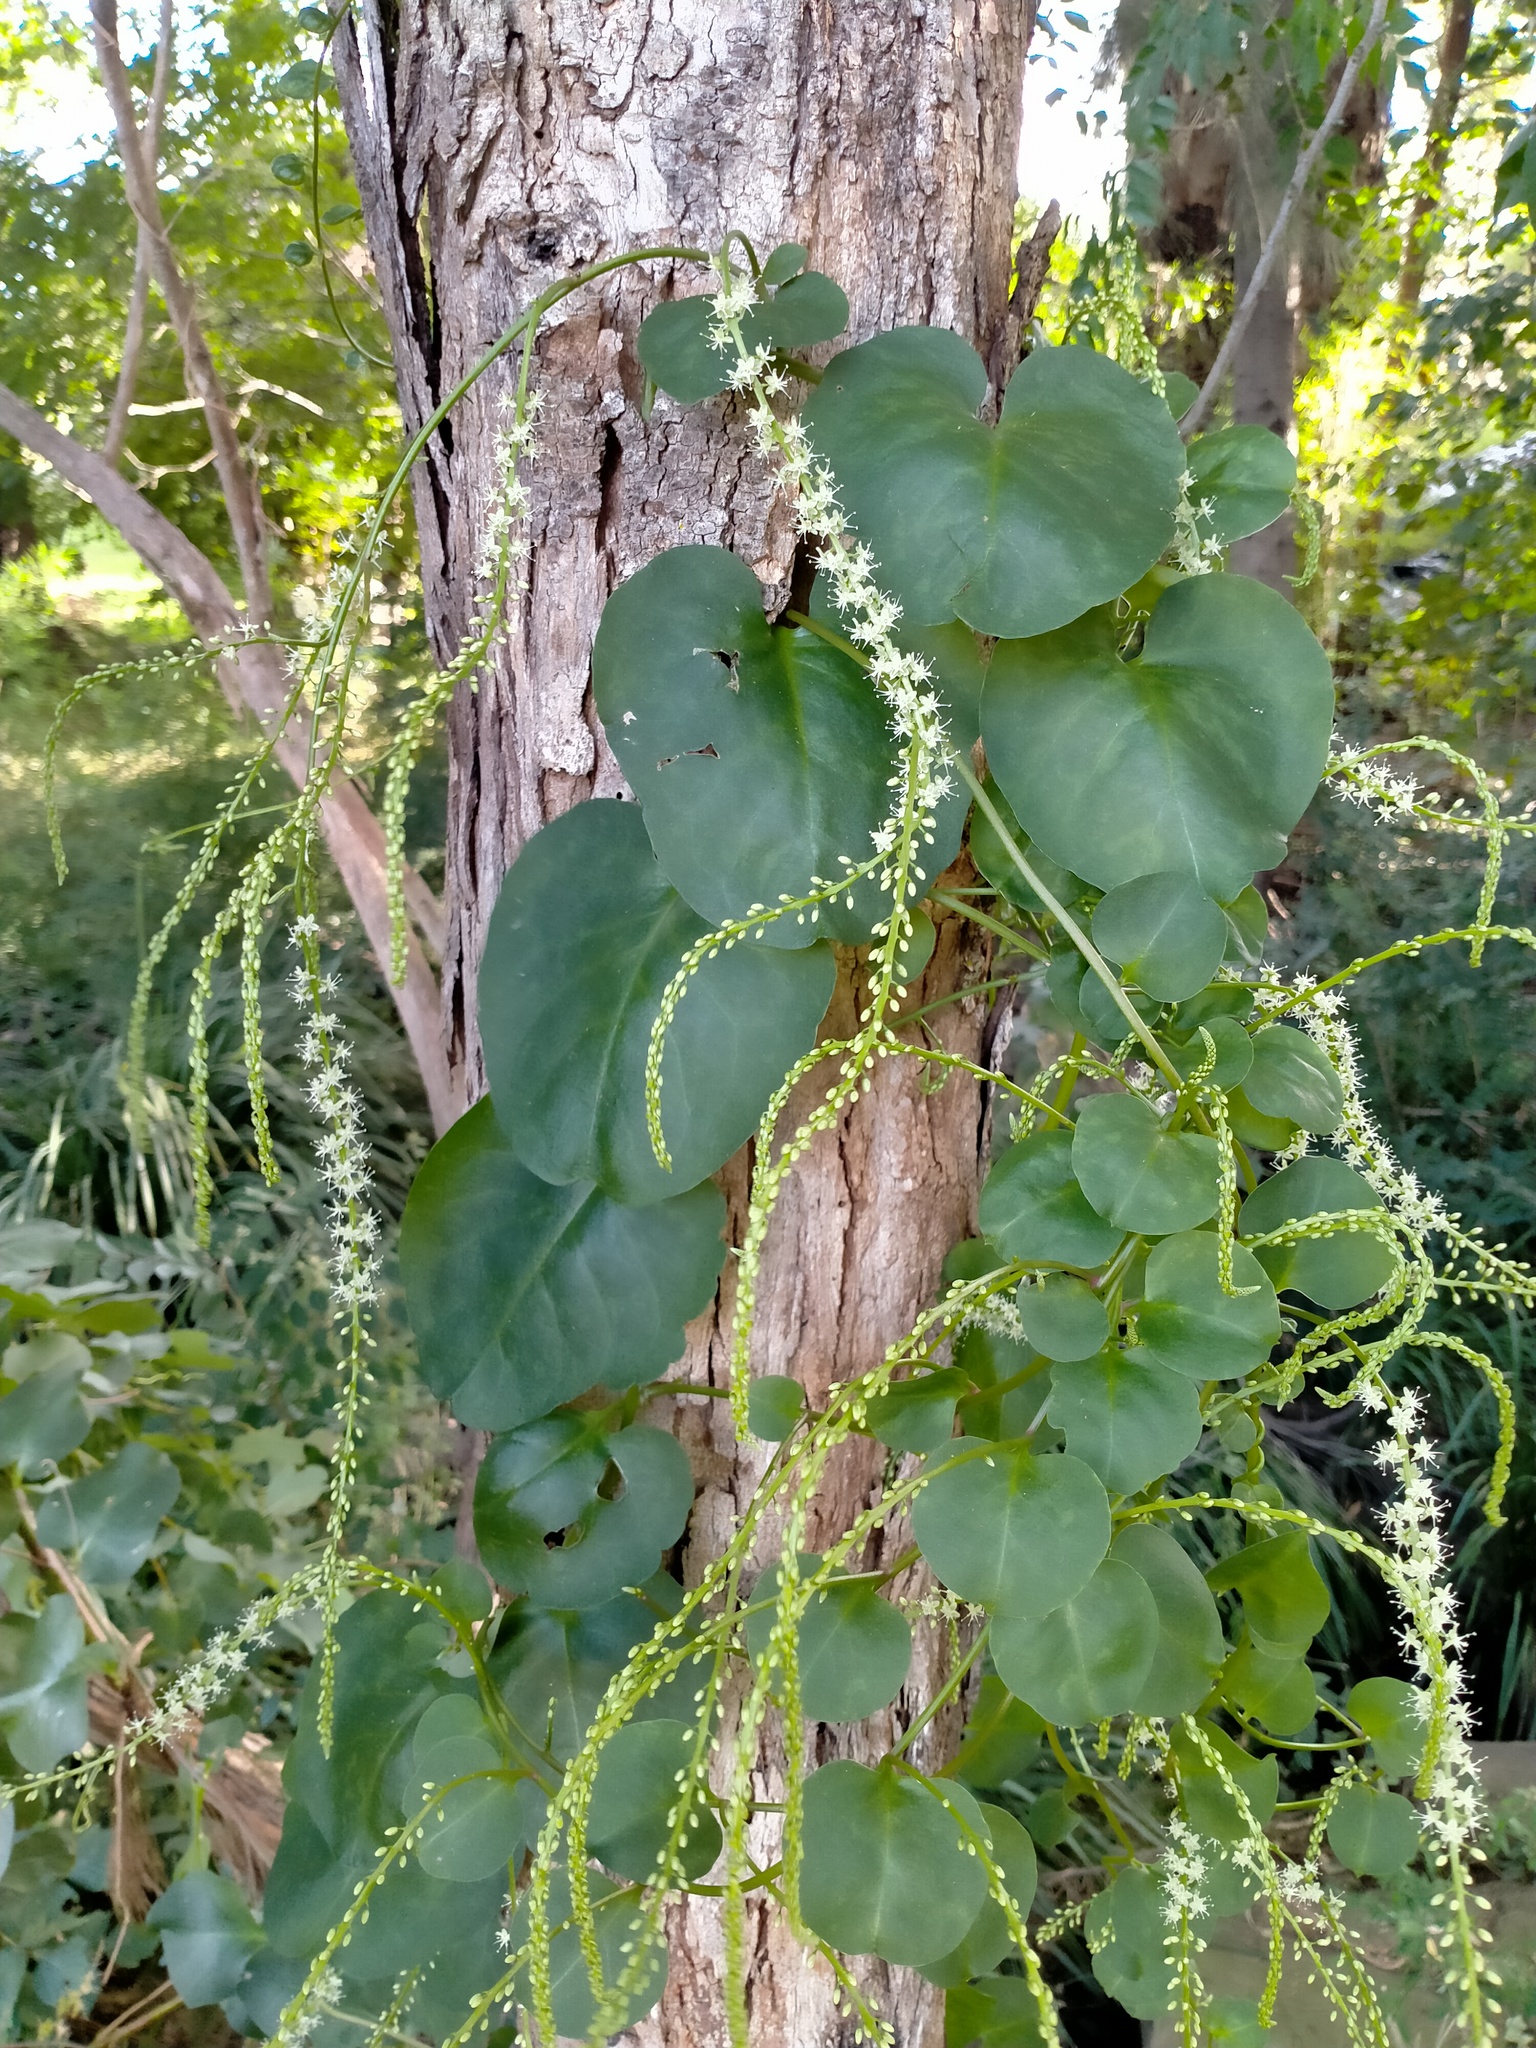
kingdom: Plantae
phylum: Tracheophyta
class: Magnoliopsida
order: Caryophyllales
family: Basellaceae
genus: Anredera
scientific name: Anredera cordifolia
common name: Heartleaf madeiravine
